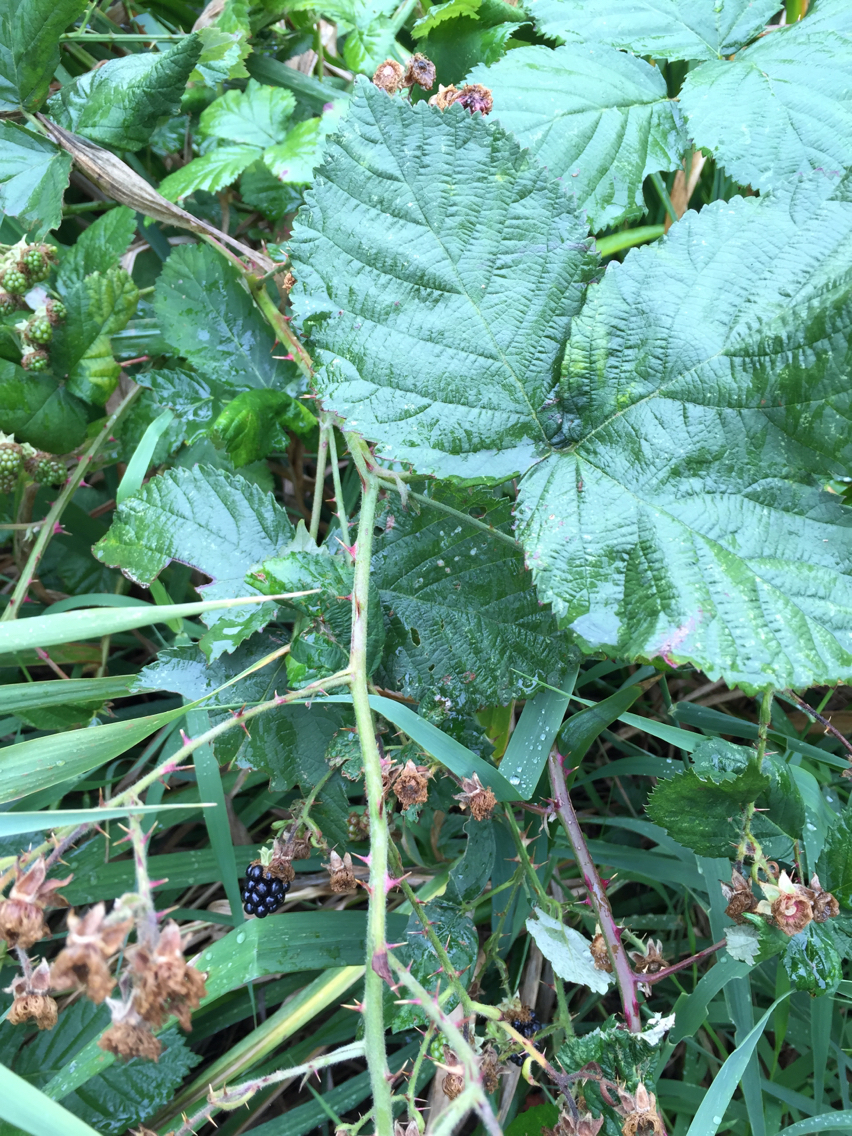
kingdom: Plantae
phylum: Tracheophyta
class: Magnoliopsida
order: Rosales
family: Rosaceae
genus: Rubus
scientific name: Rubus armeniacus
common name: Himalayan blackberry
